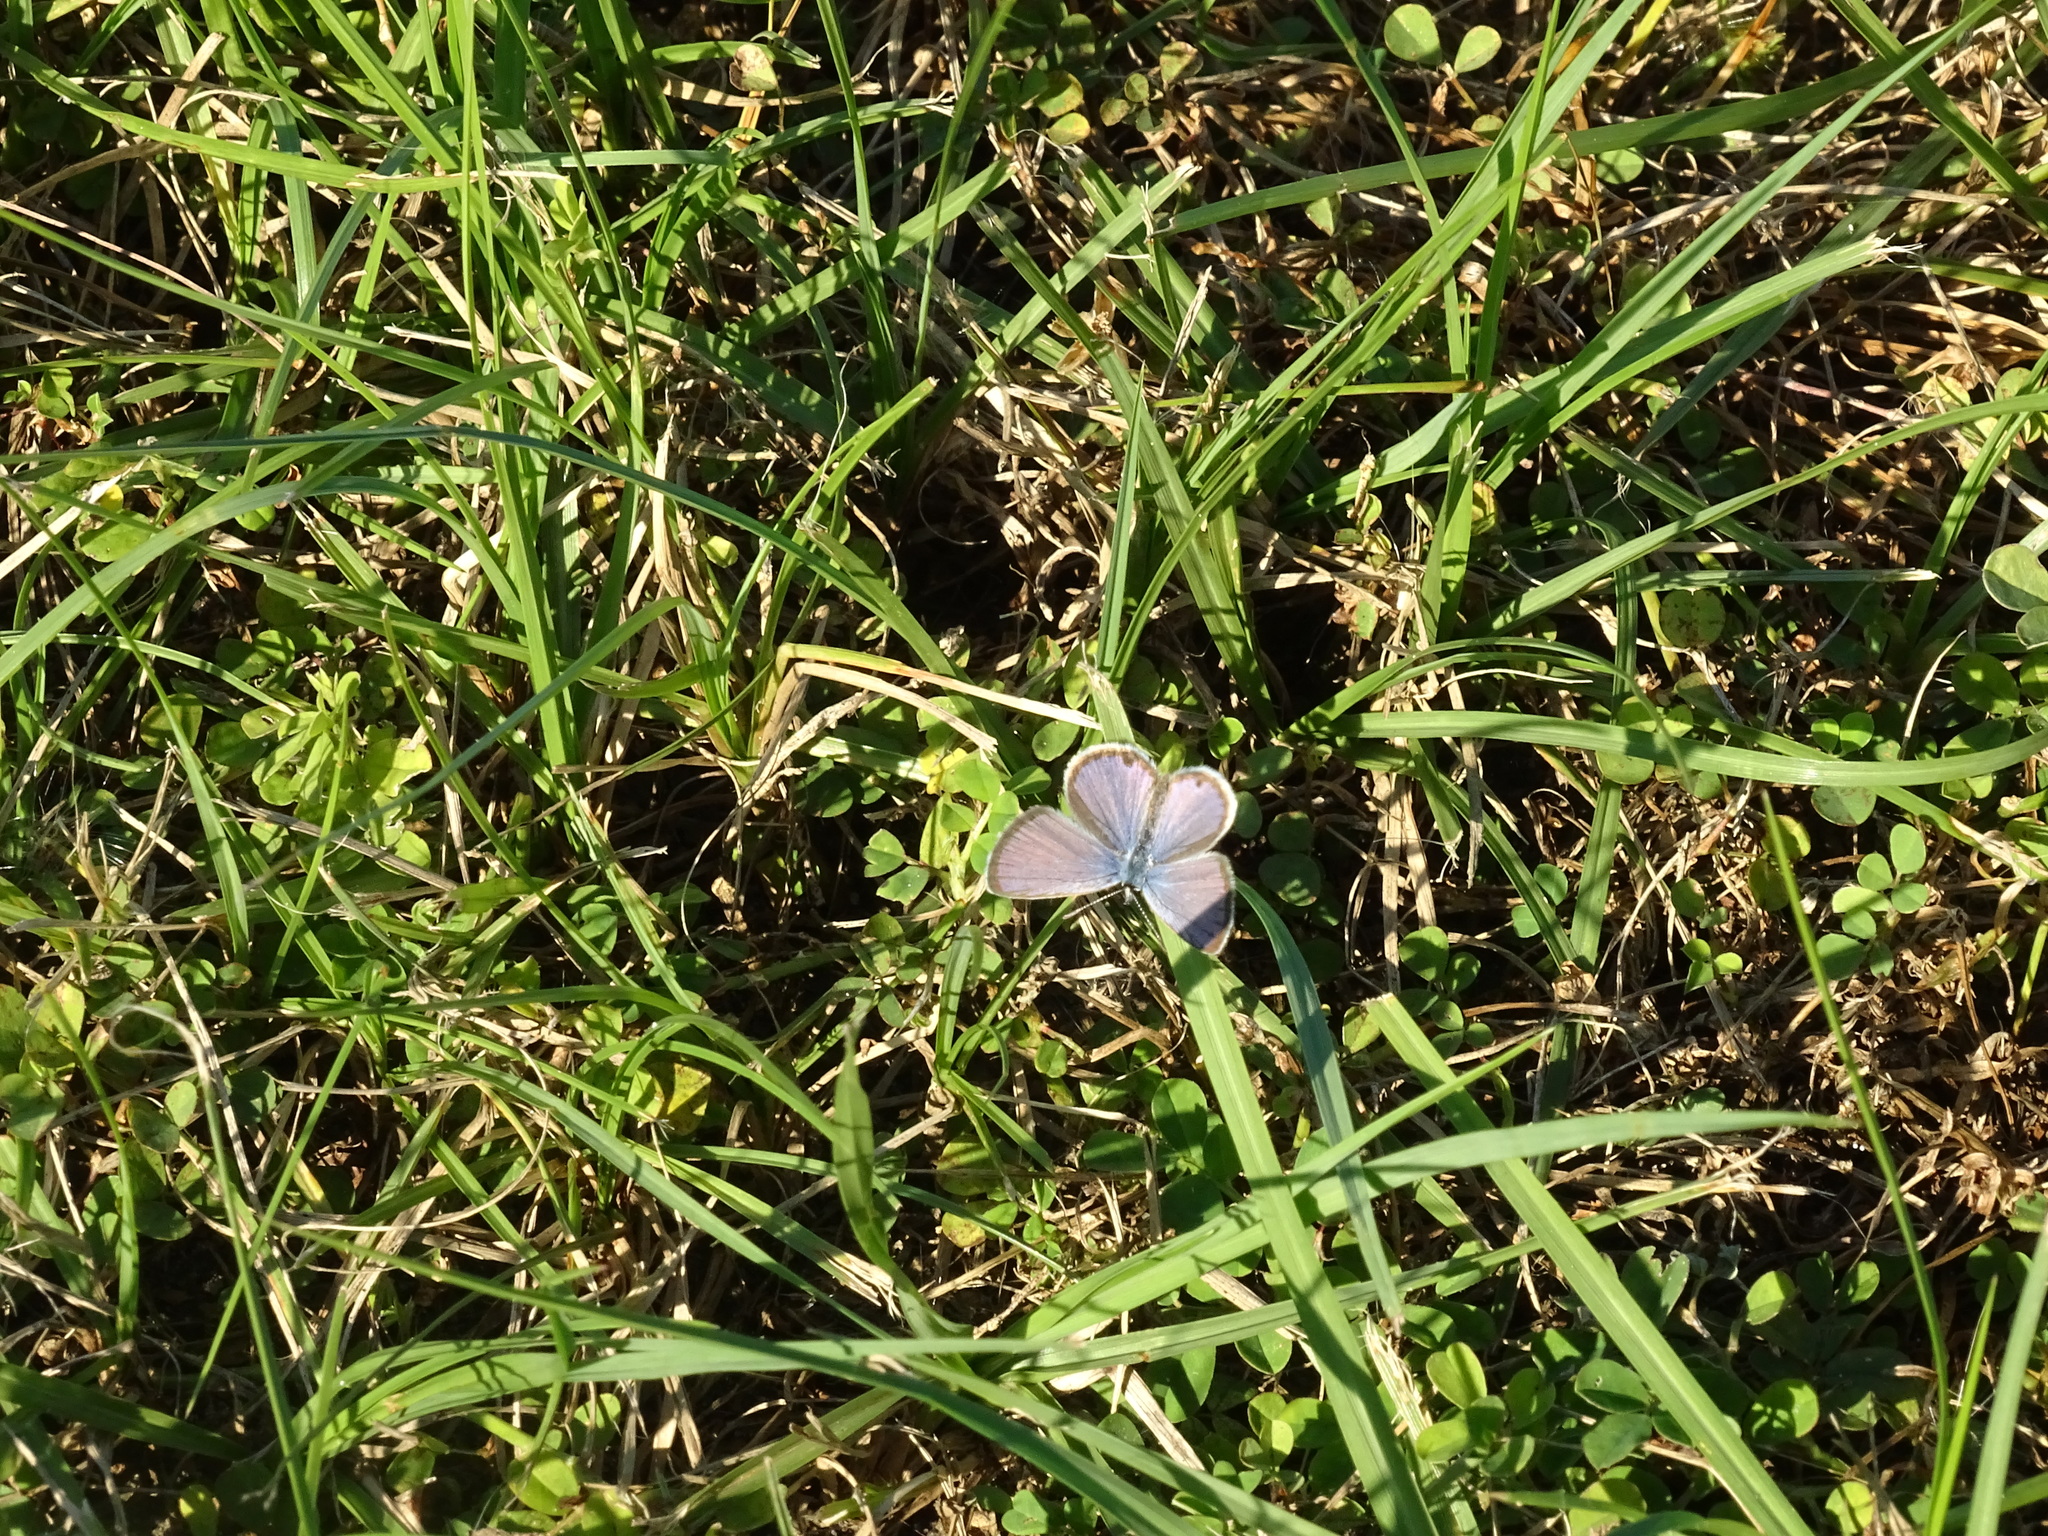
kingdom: Animalia
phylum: Arthropoda
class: Insecta
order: Lepidoptera
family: Lycaenidae
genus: Hemiargus
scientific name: Hemiargus ceraunus
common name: Ceraunus blue
